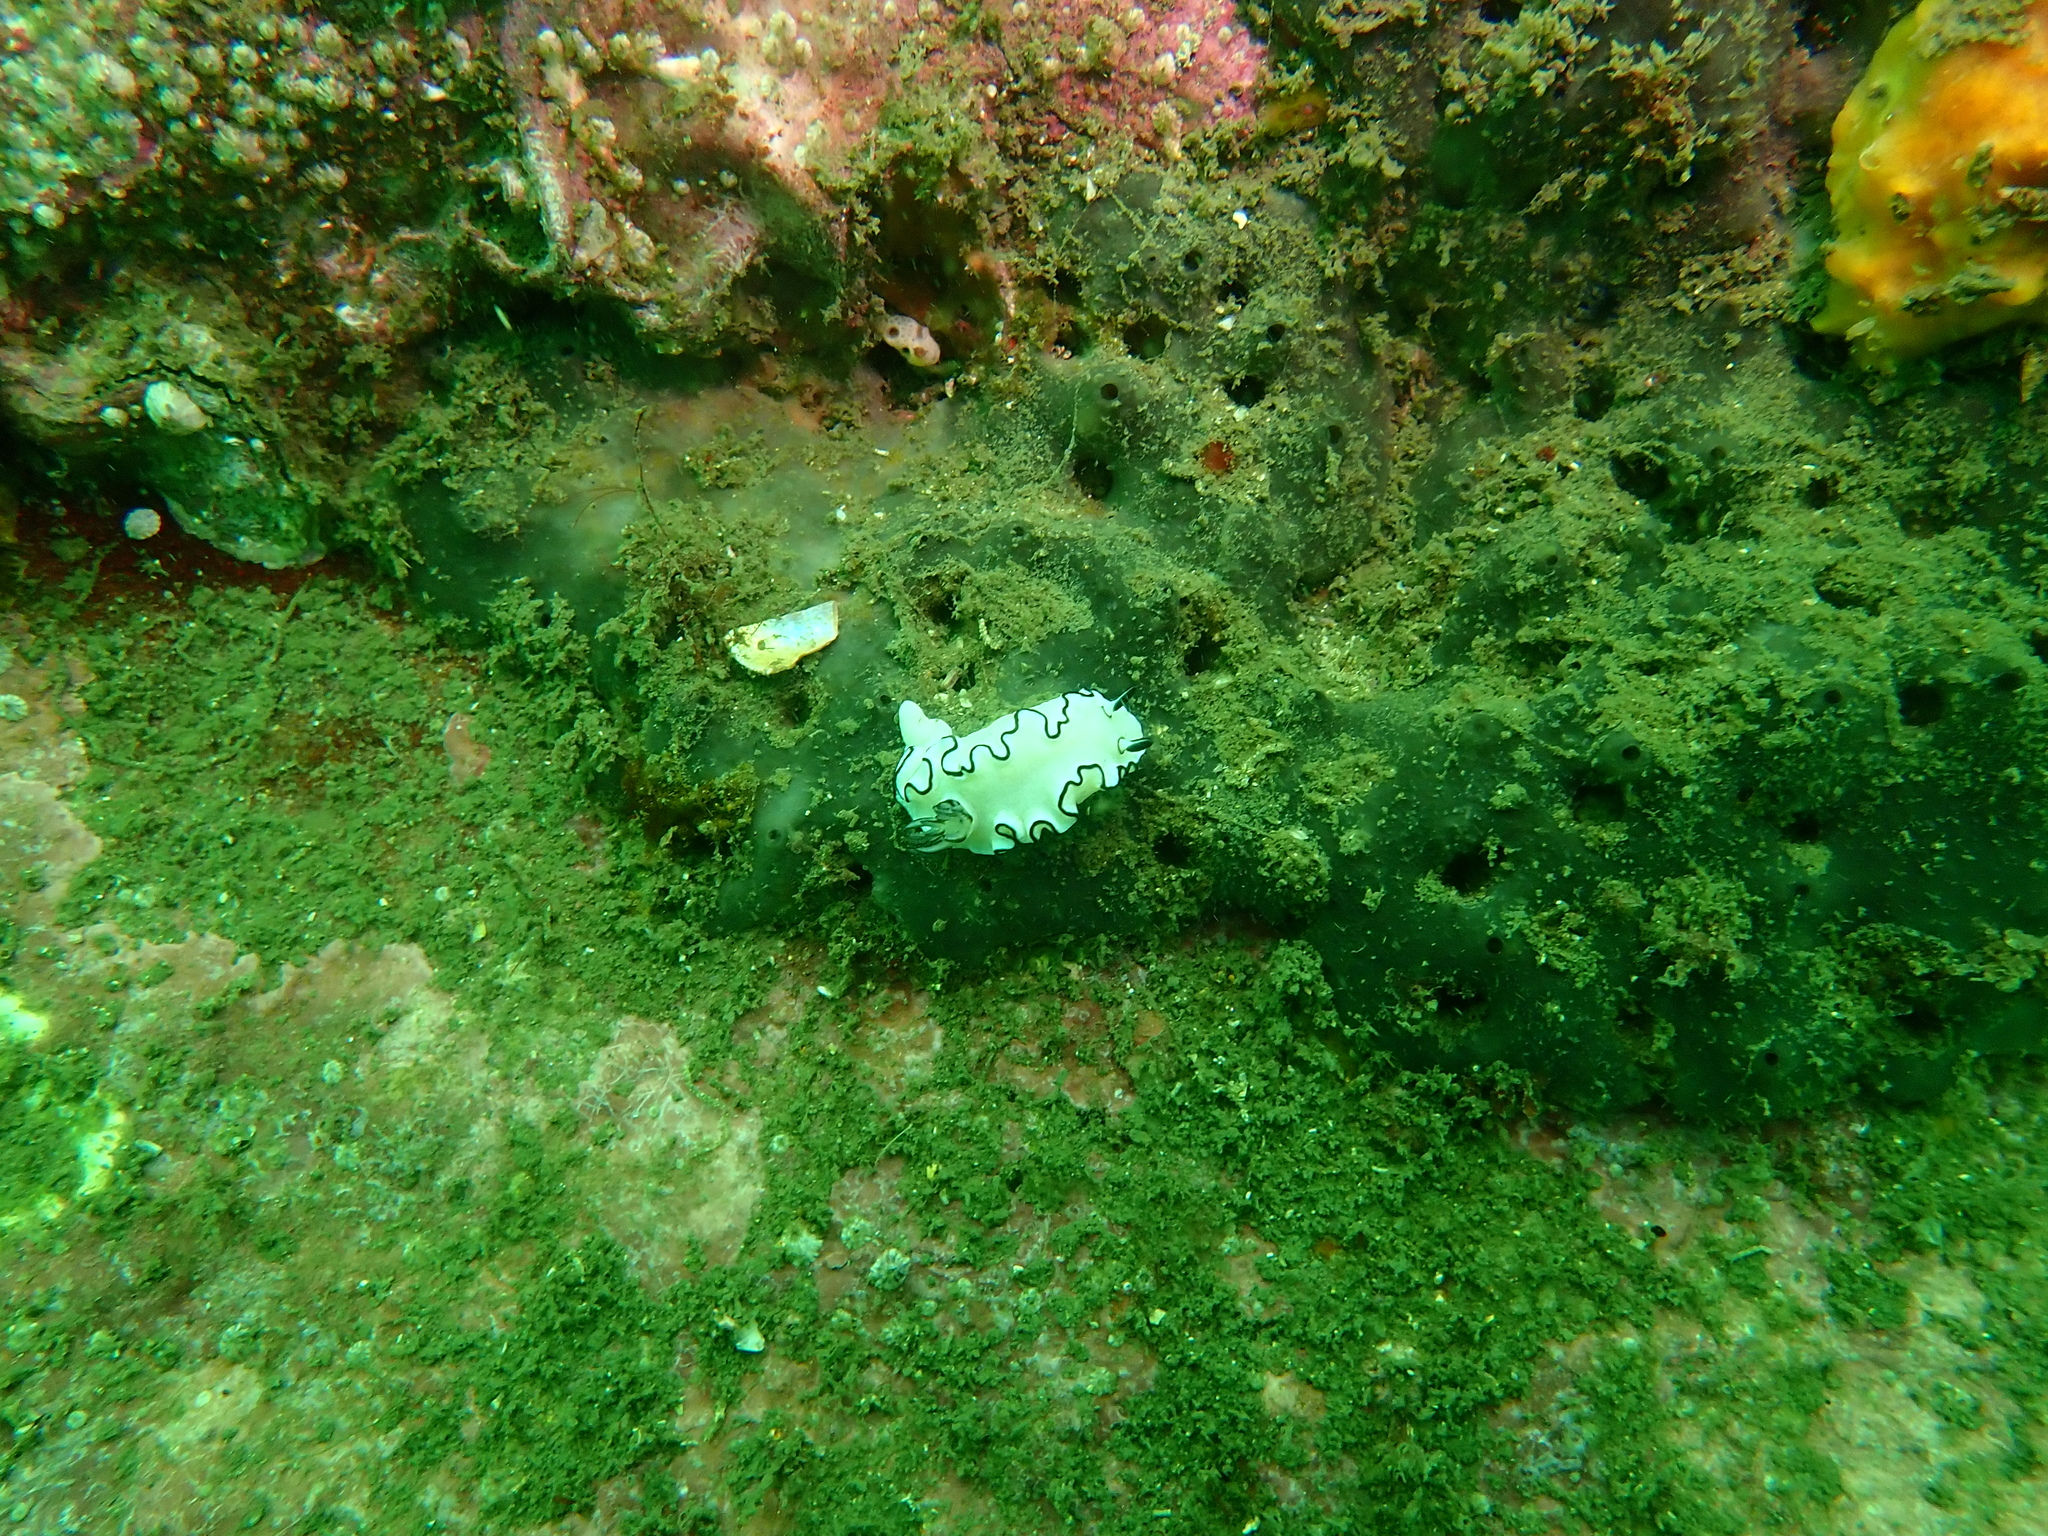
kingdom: Animalia
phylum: Mollusca
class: Gastropoda
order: Nudibranchia
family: Chromodorididae
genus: Doriprismatica
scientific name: Doriprismatica atromarginata
